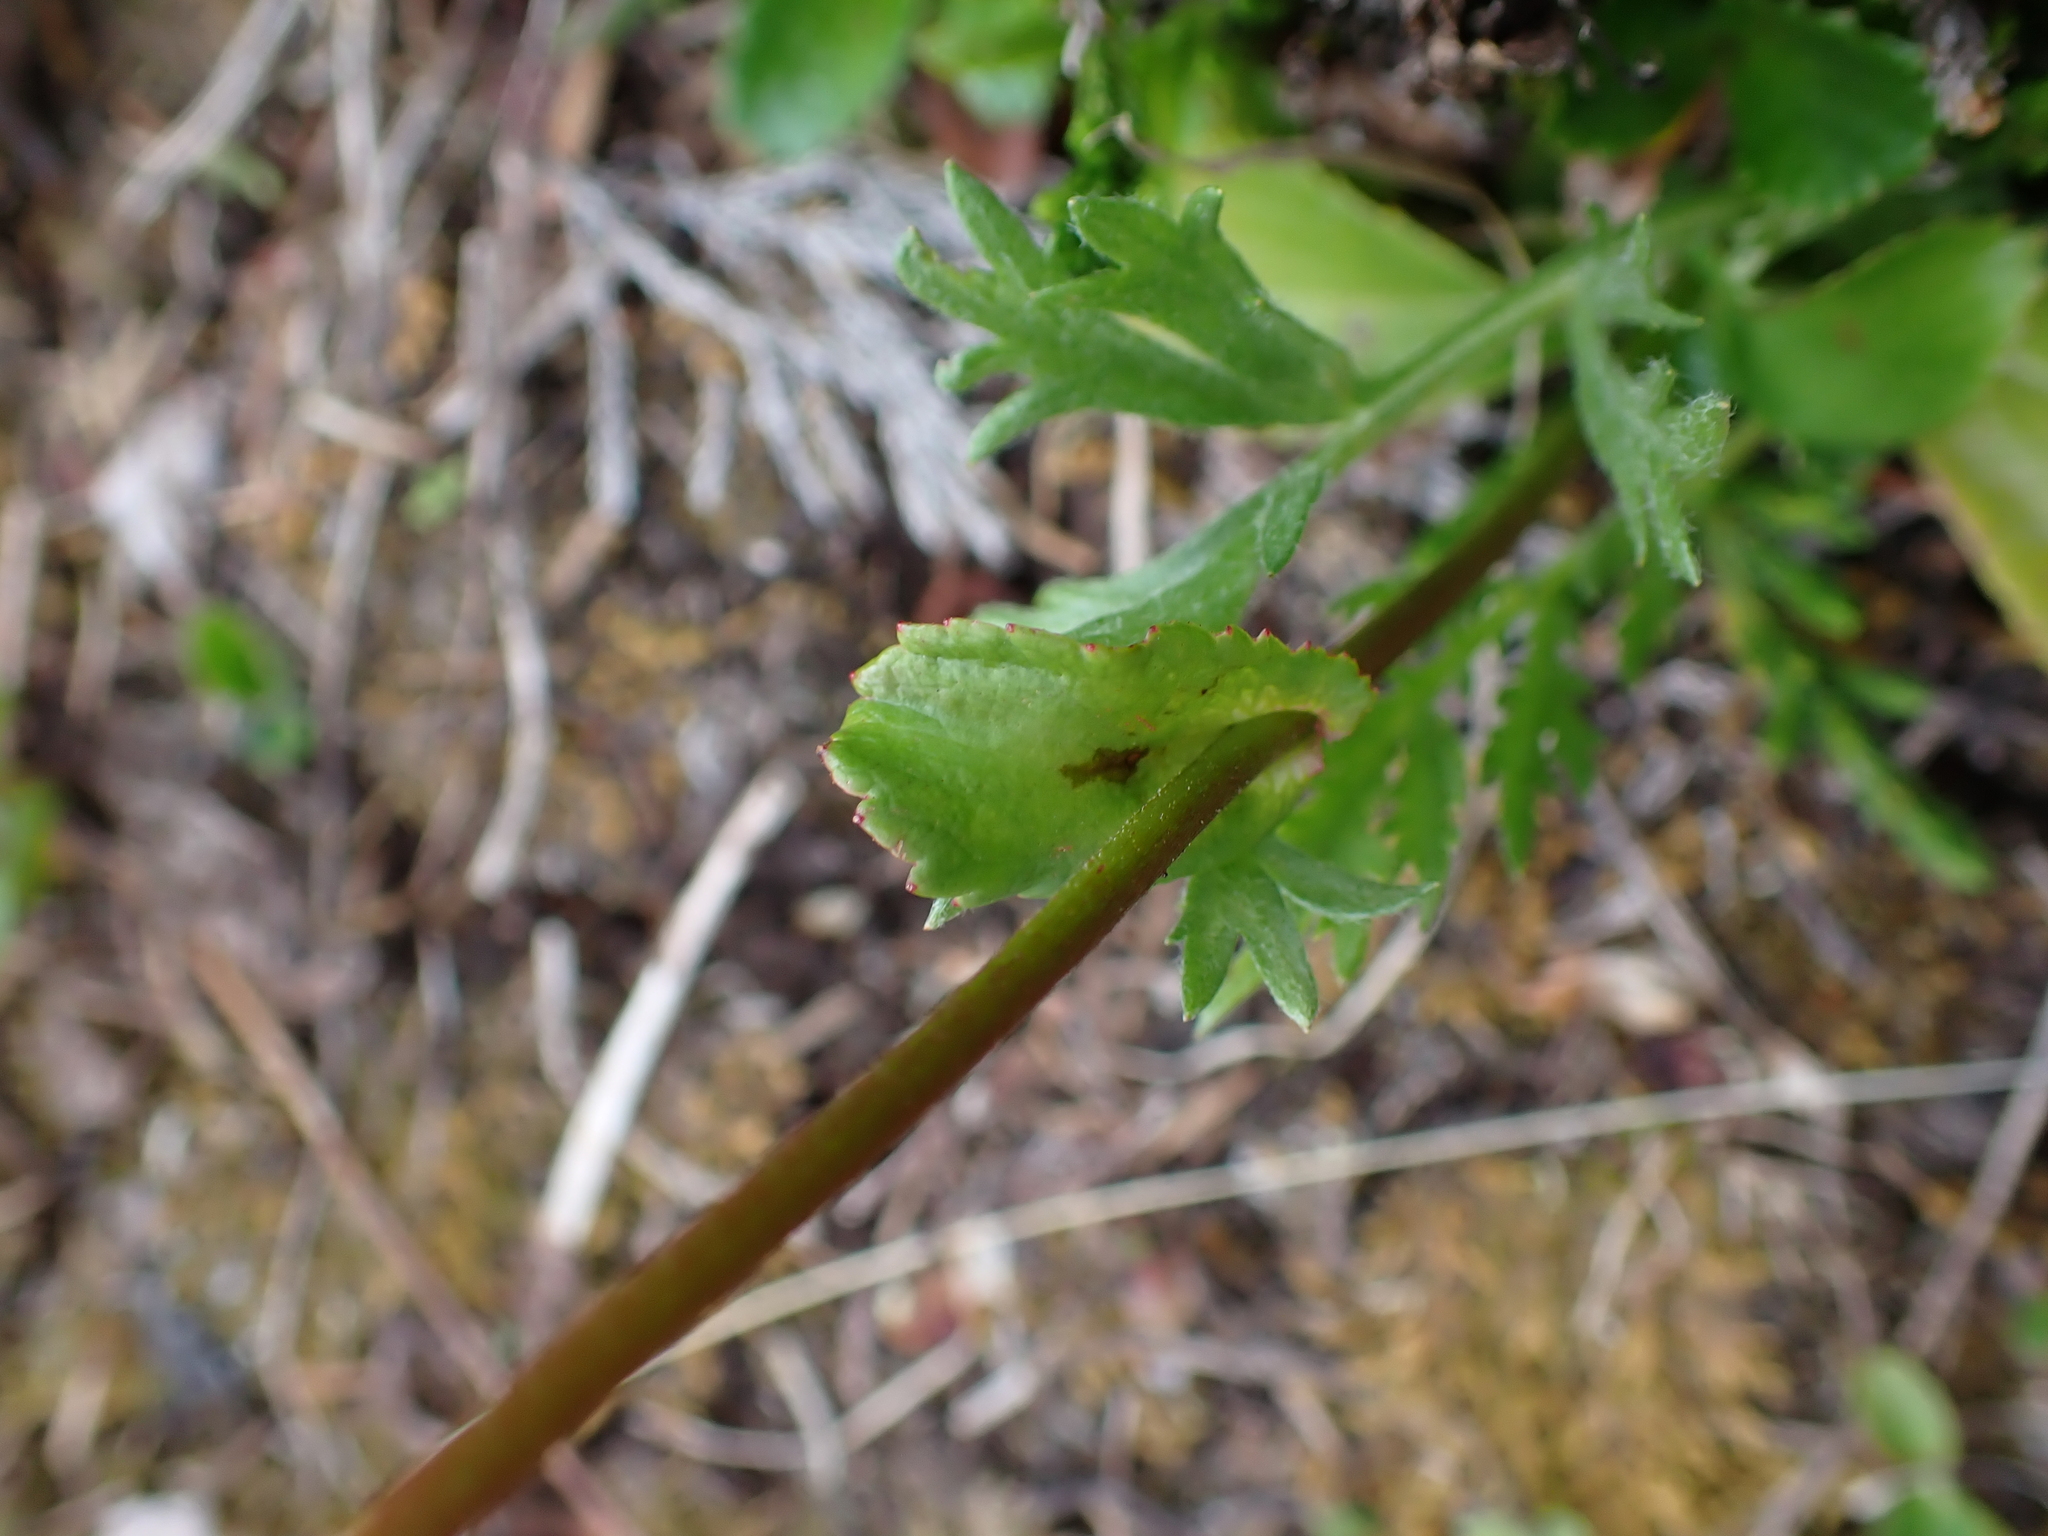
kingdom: Plantae
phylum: Tracheophyta
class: Magnoliopsida
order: Saxifragales
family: Saxifragaceae
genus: Leptarrhena
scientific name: Leptarrhena pyrolifolia
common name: Leatherleaf-saxifrage
